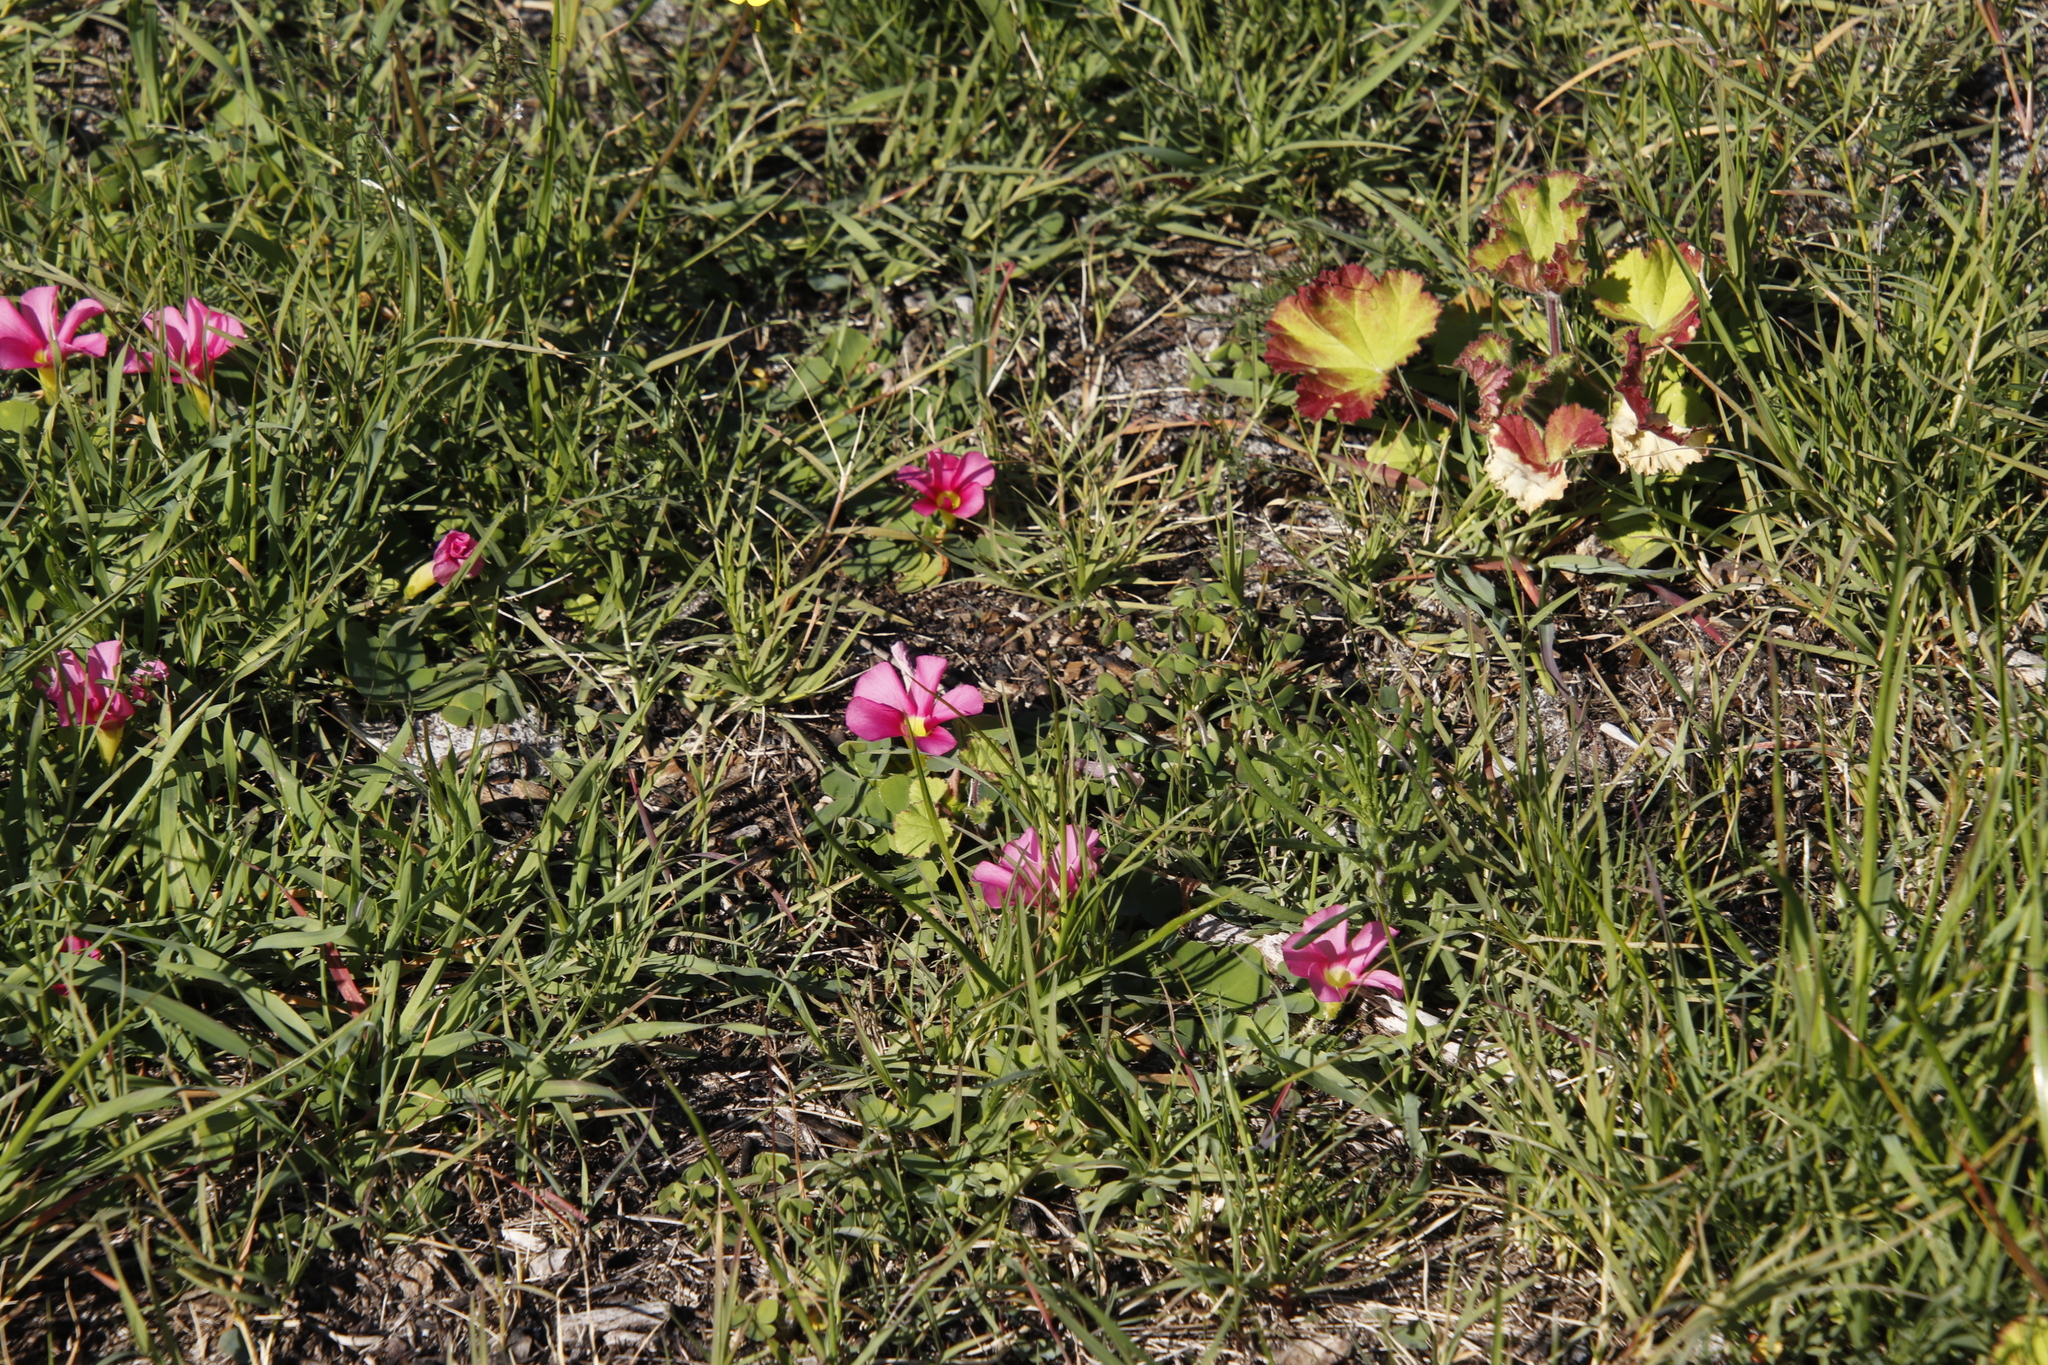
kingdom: Plantae
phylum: Tracheophyta
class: Magnoliopsida
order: Oxalidales
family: Oxalidaceae
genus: Oxalis
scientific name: Oxalis purpurea
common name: Purple woodsorrel
